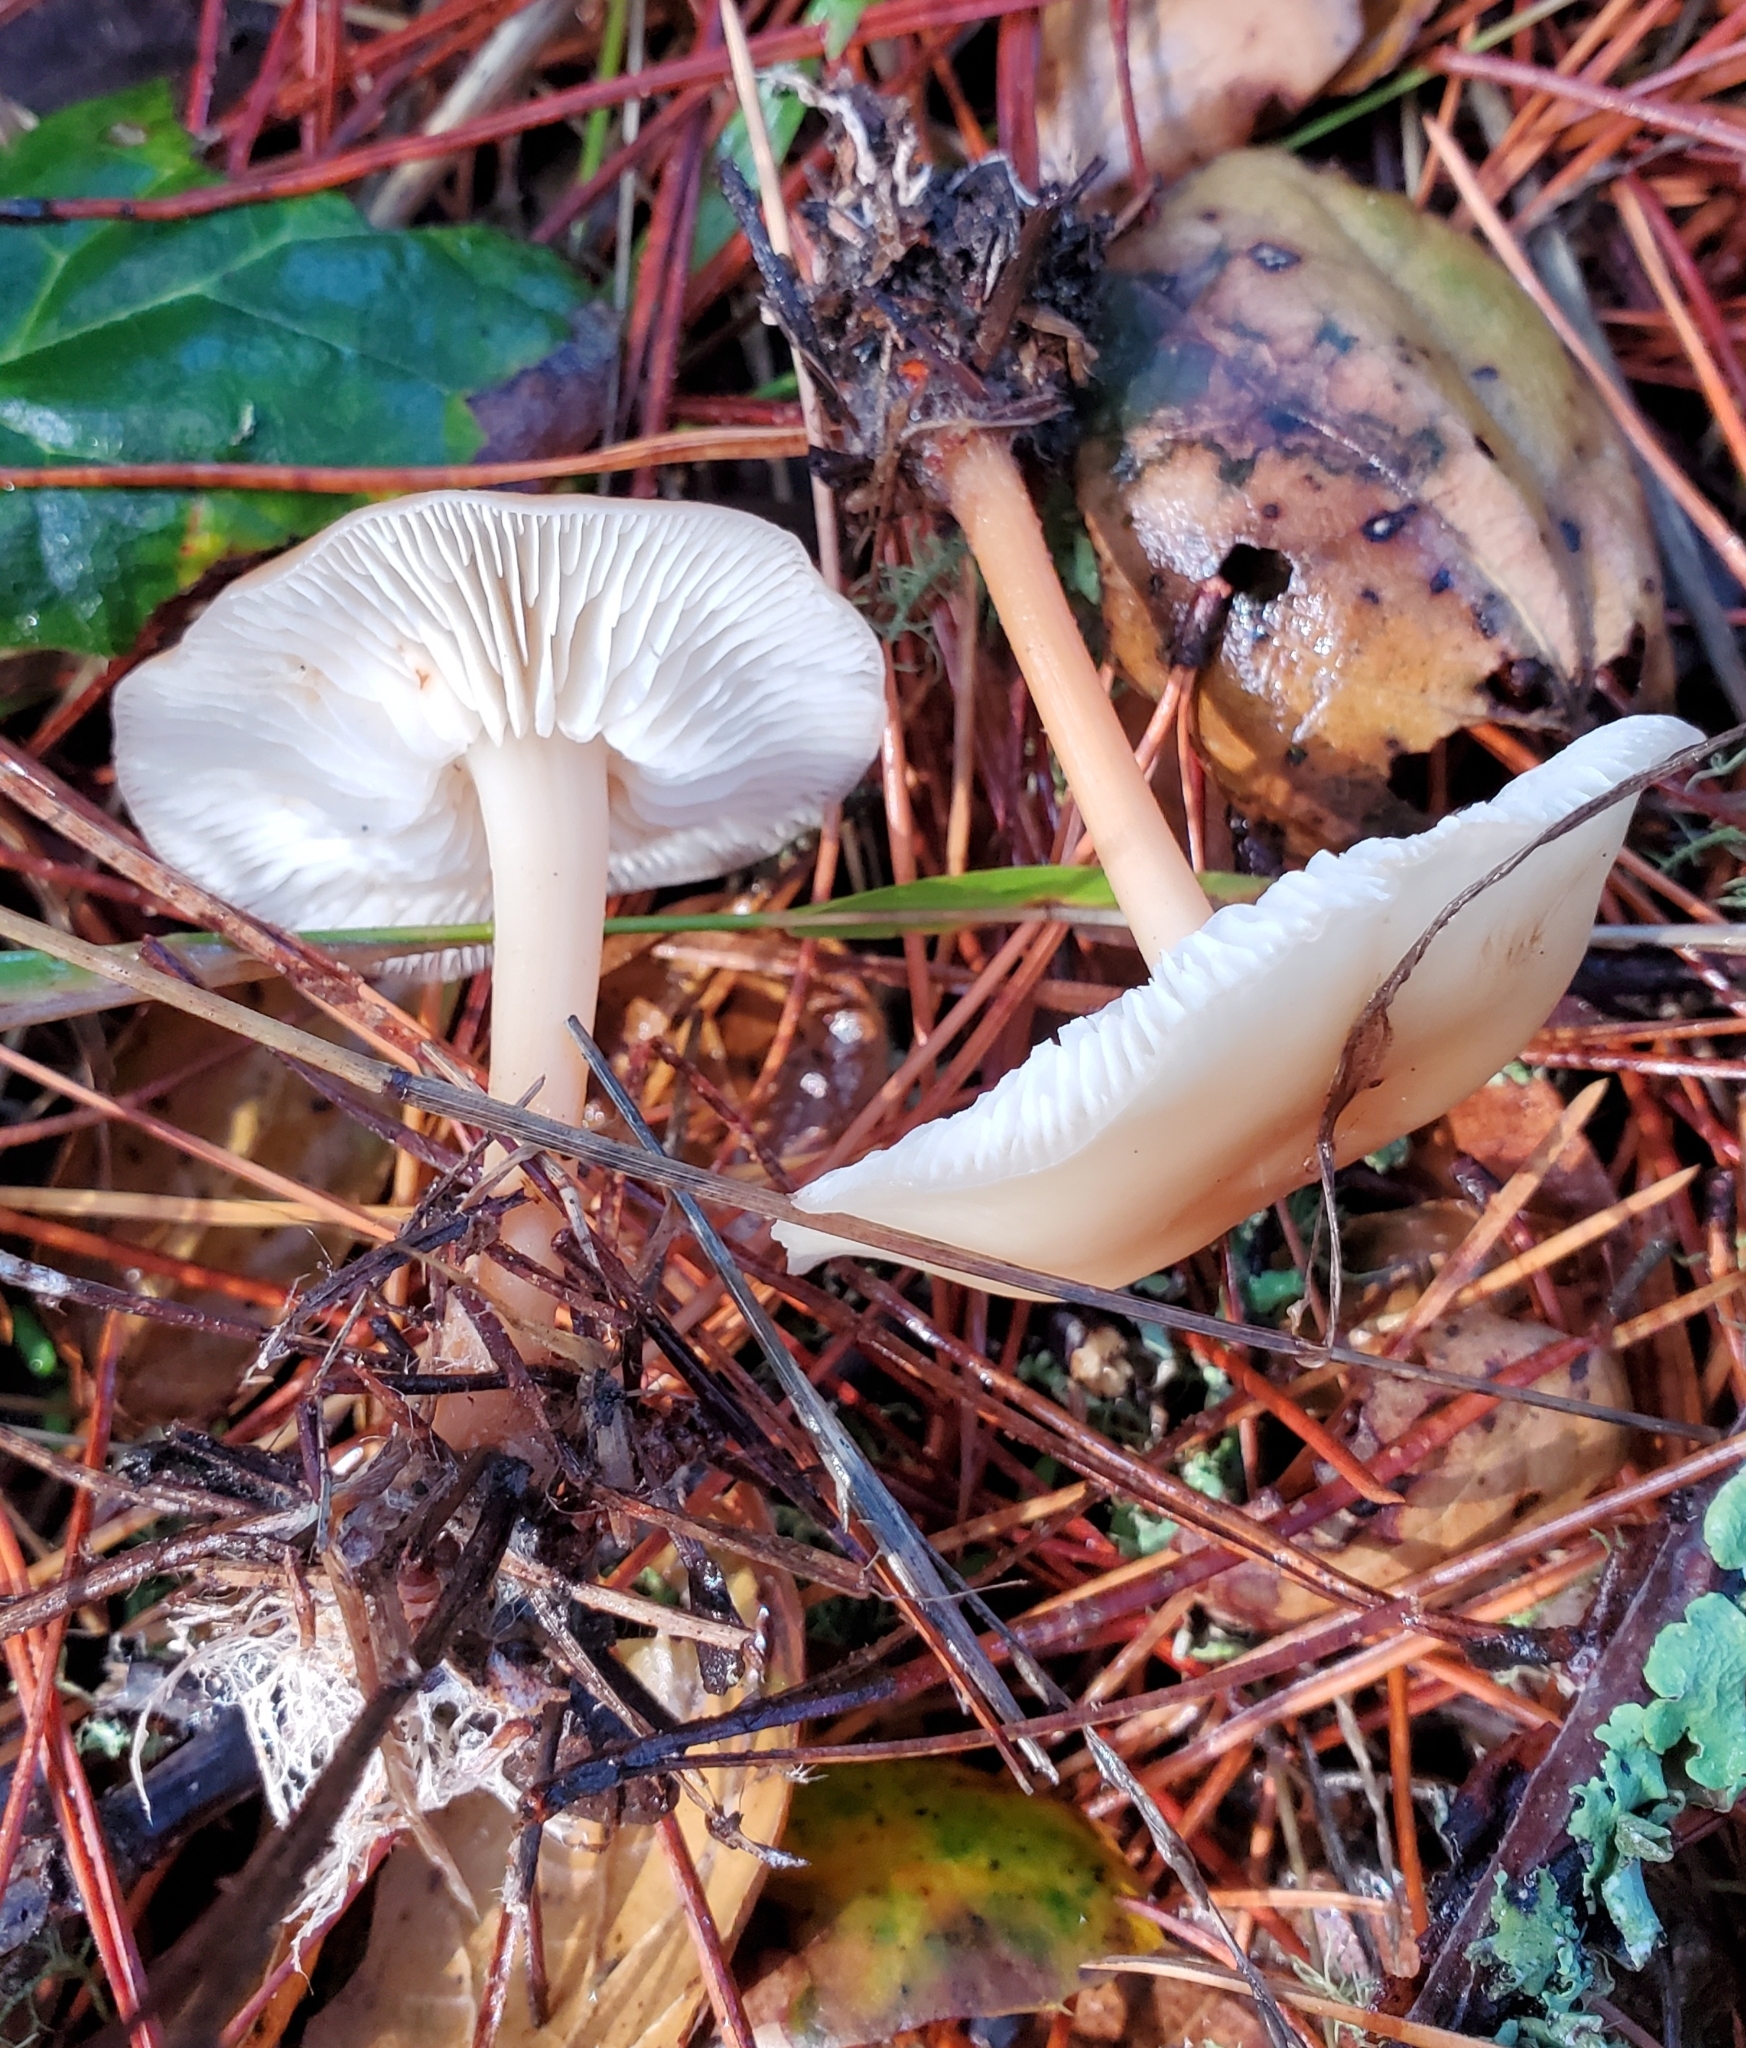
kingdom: Fungi
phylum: Basidiomycota
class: Agaricomycetes
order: Agaricales
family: Omphalotaceae
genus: Gymnopus
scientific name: Gymnopus dryophilus
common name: Penny top
